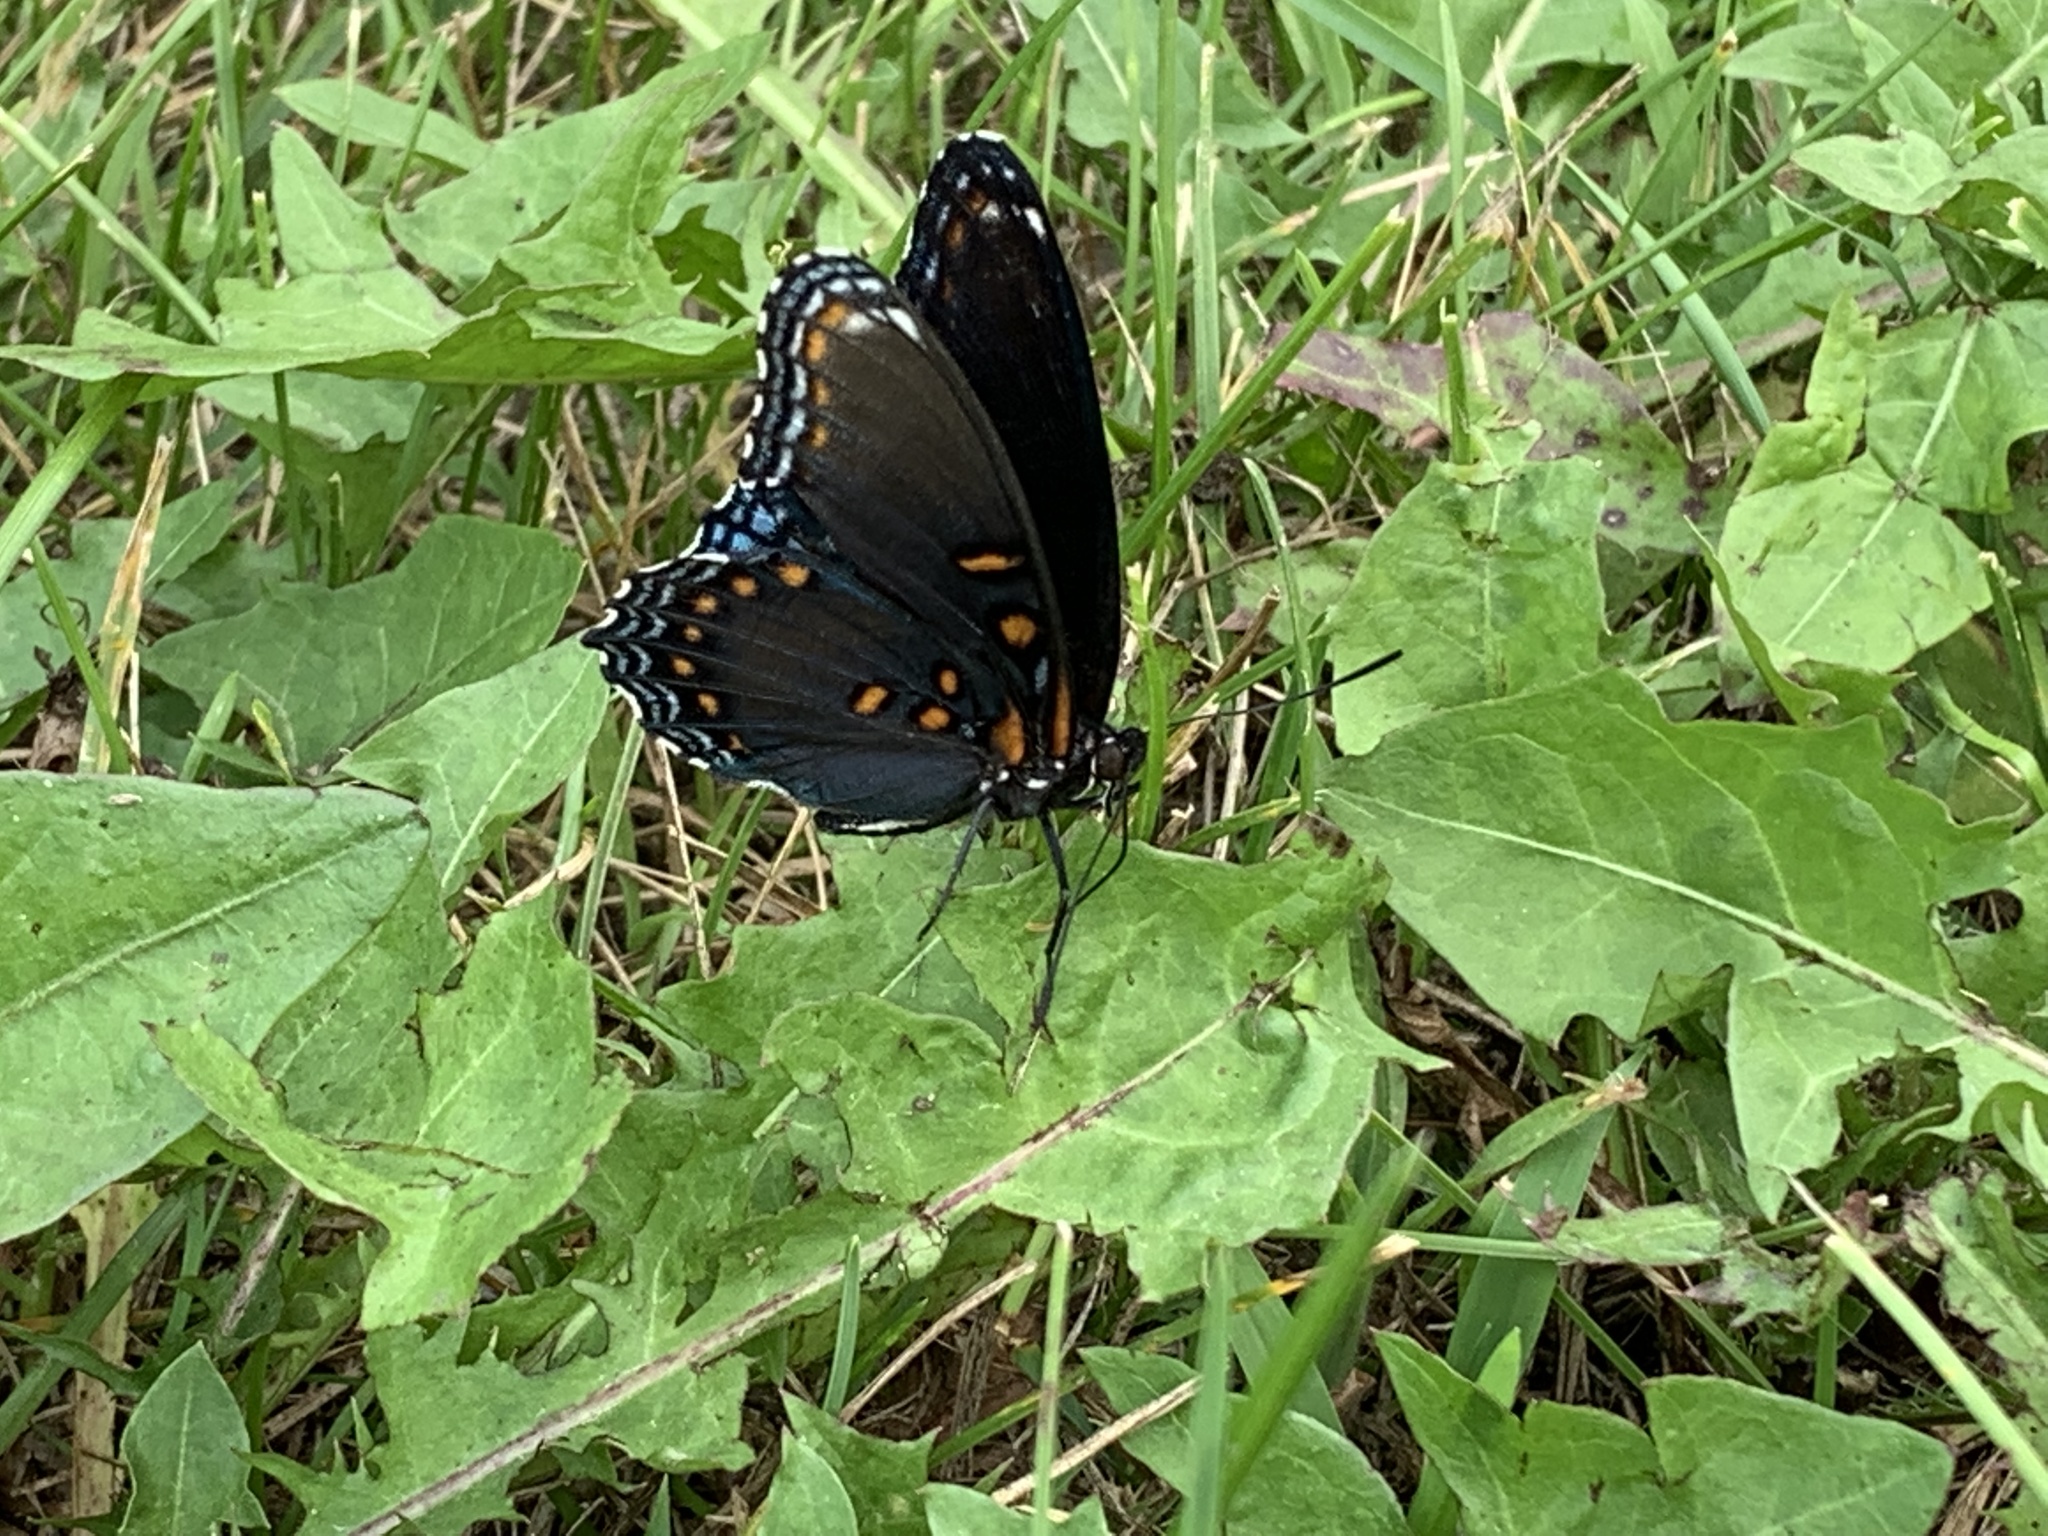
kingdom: Animalia
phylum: Arthropoda
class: Insecta
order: Lepidoptera
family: Nymphalidae
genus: Limenitis
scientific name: Limenitis astyanax
